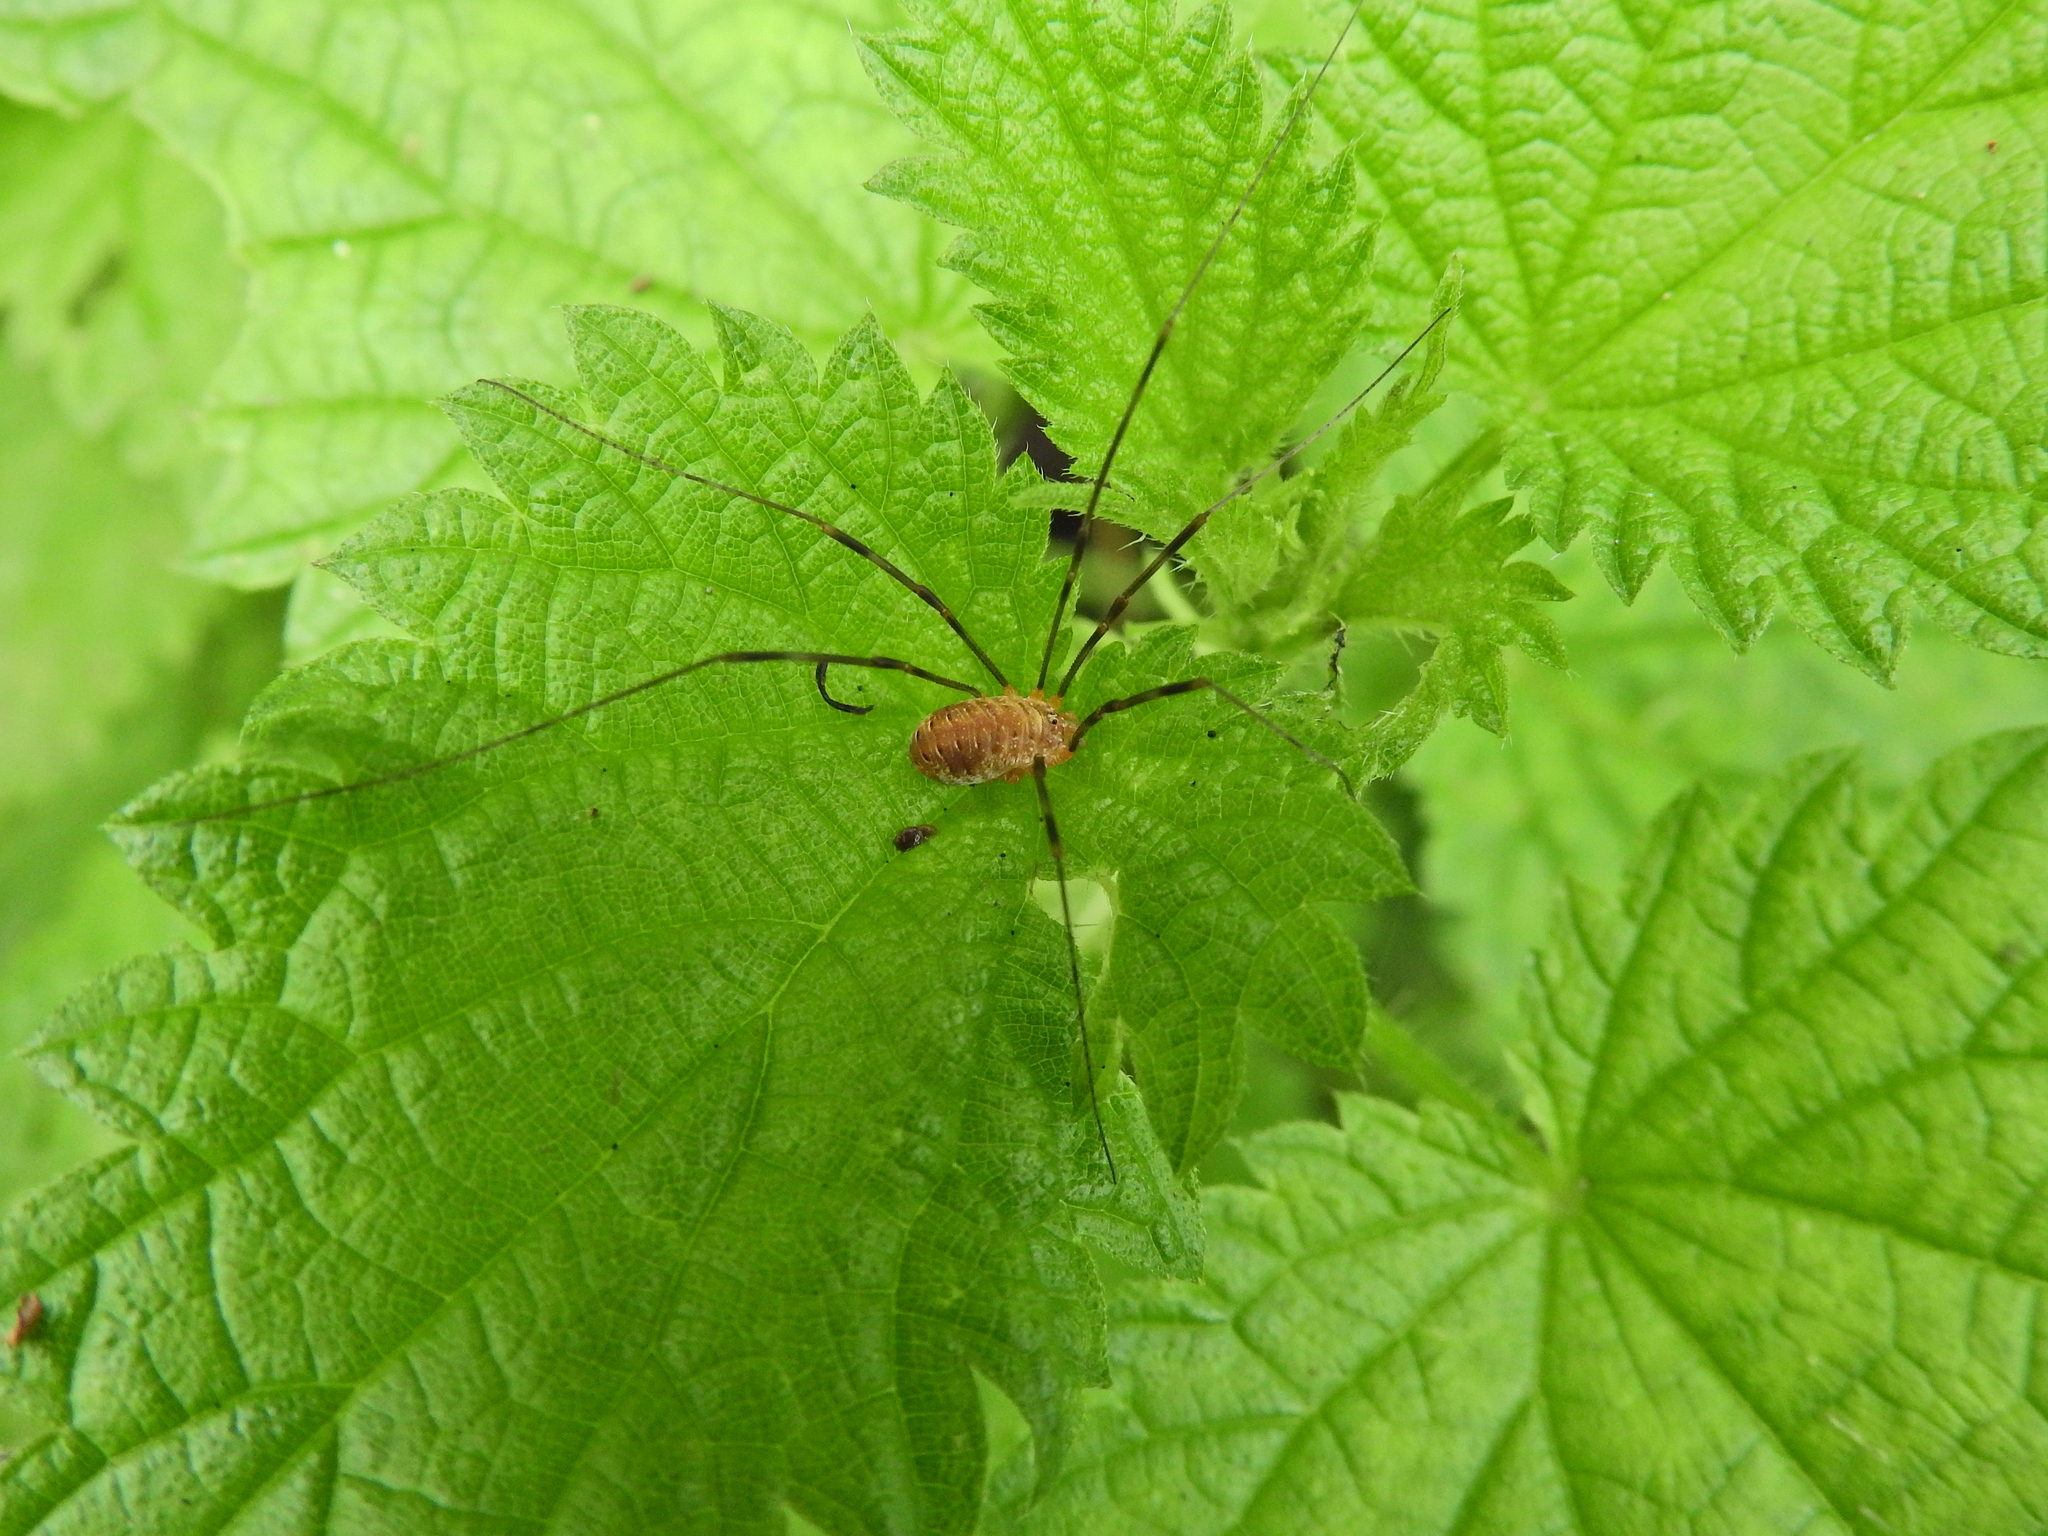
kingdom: Animalia
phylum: Arthropoda
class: Arachnida
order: Opiliones
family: Phalangiidae
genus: Opilio
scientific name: Opilio canestrinii
